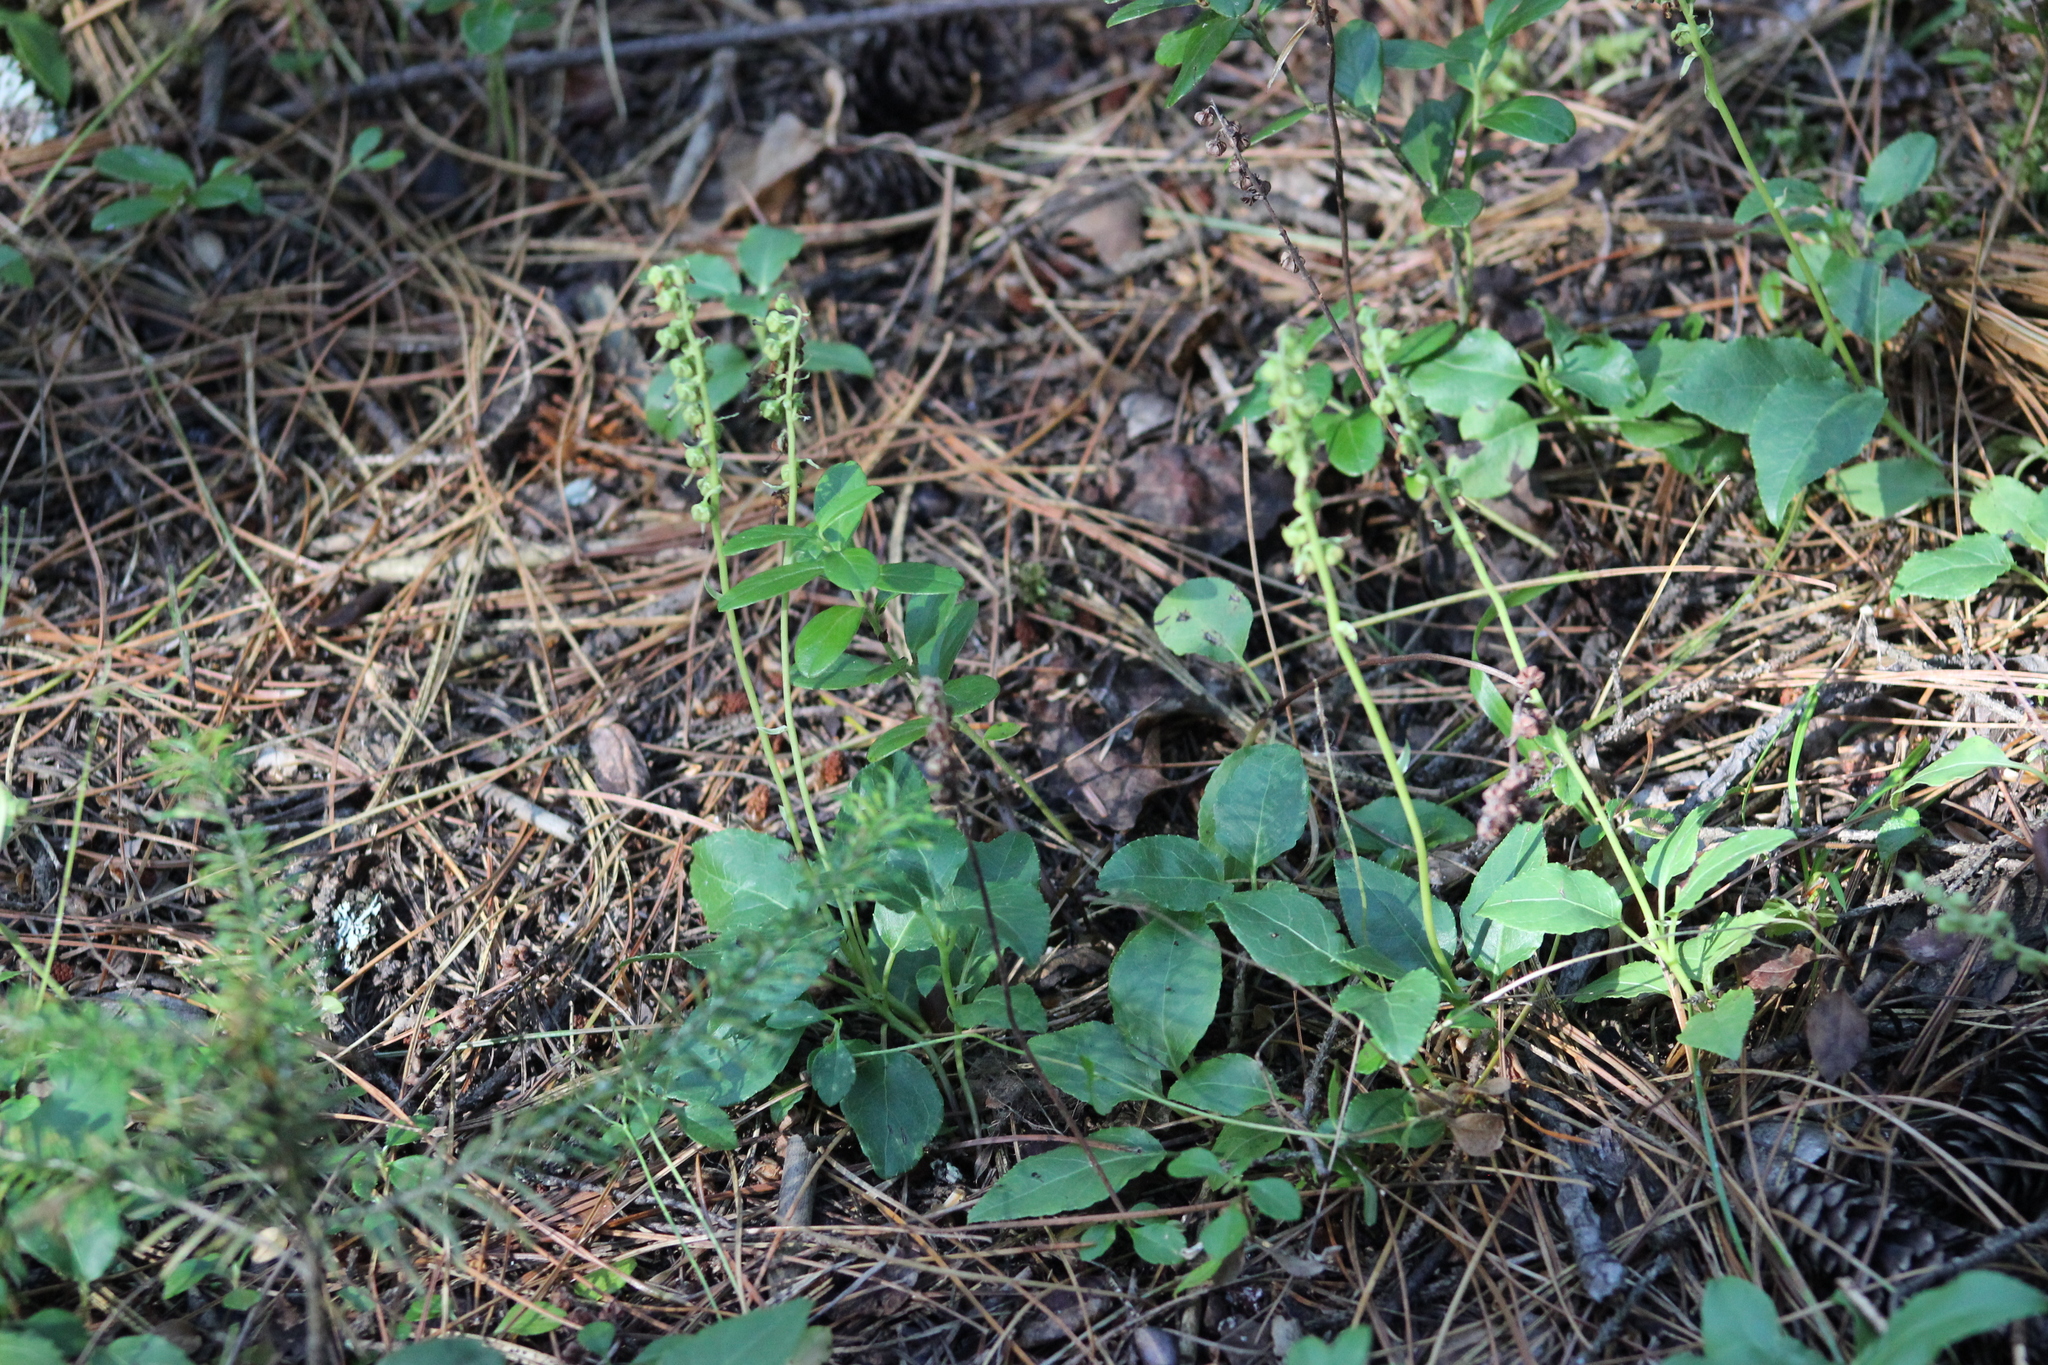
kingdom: Plantae
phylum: Tracheophyta
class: Magnoliopsida
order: Ericales
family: Ericaceae
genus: Orthilia
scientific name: Orthilia secunda
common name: One-sided orthilia
